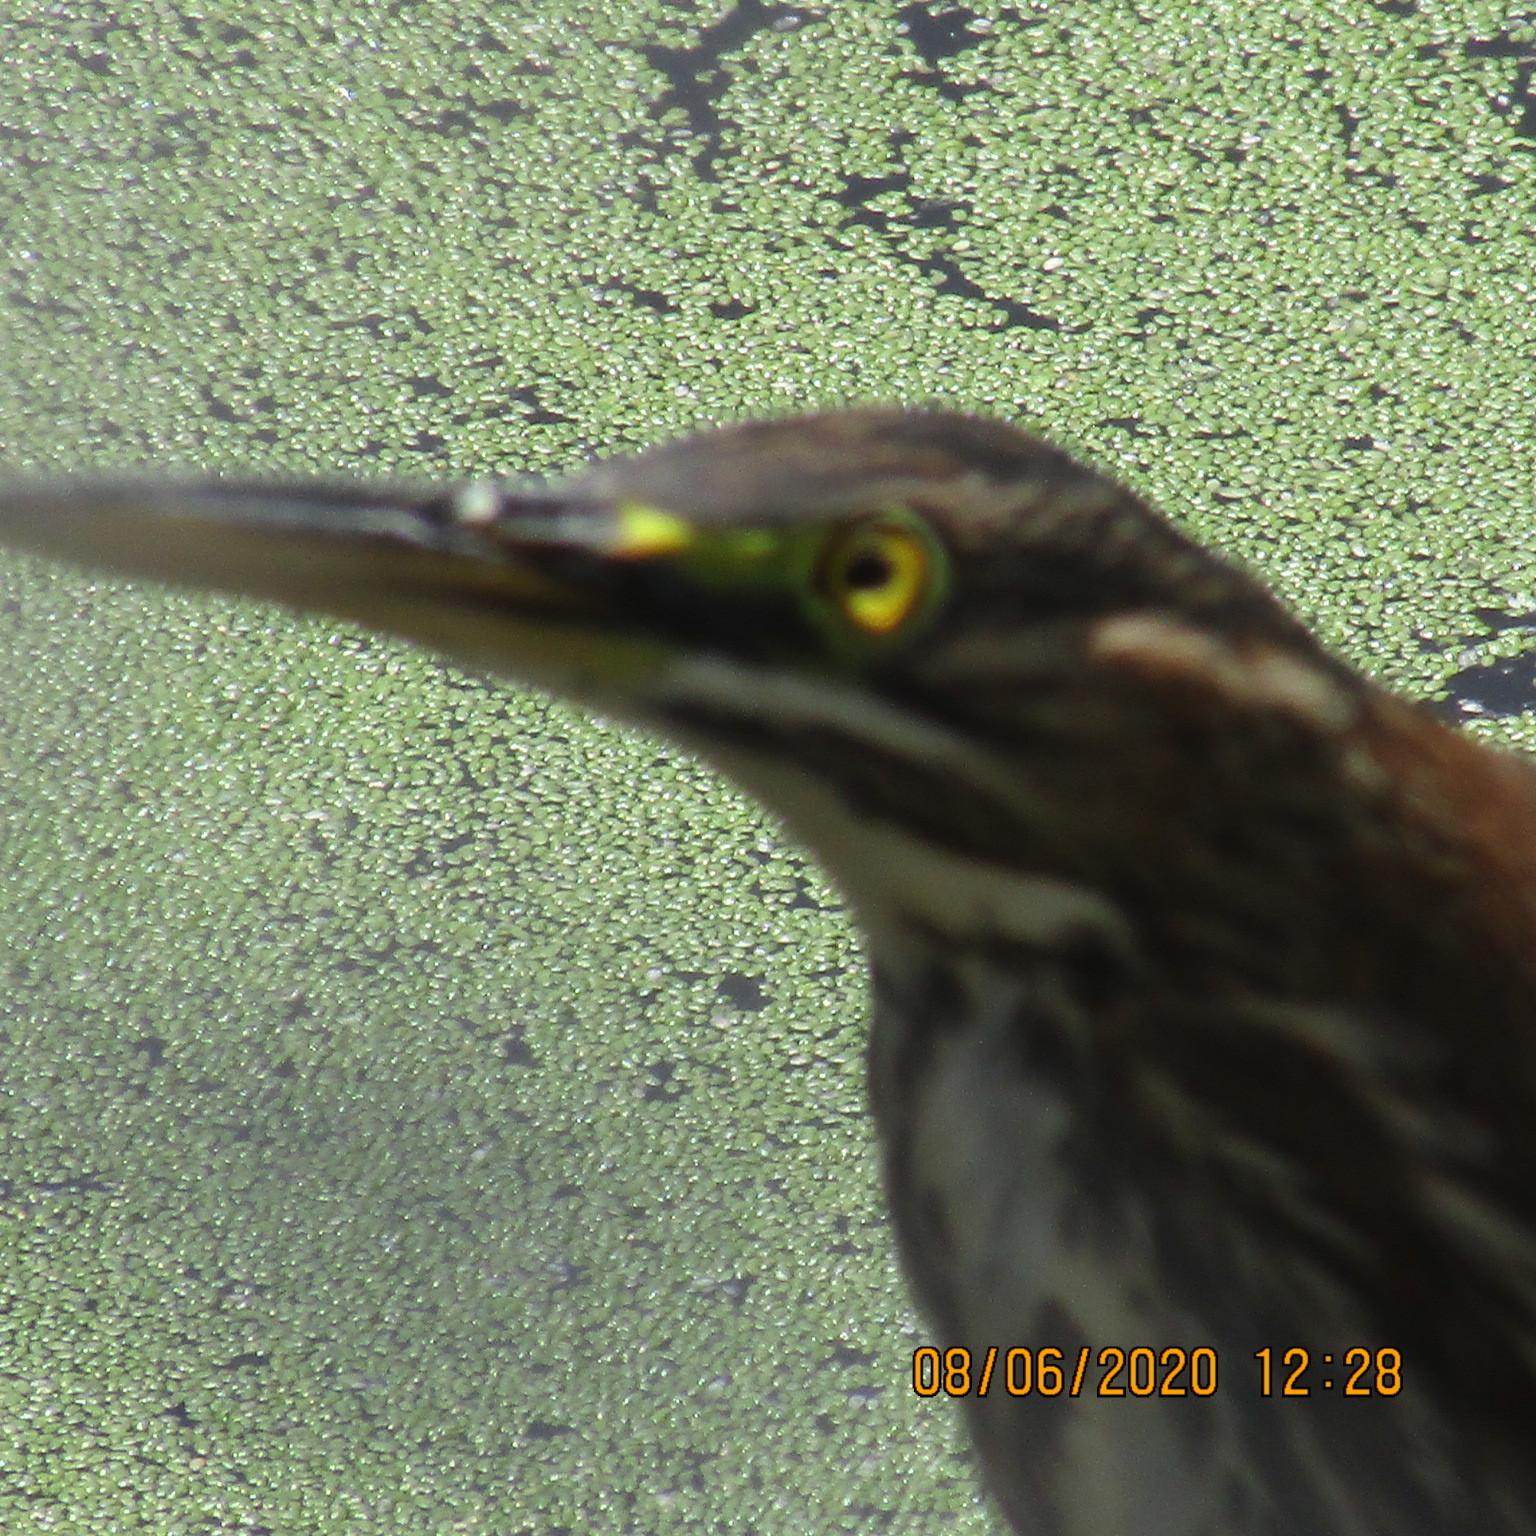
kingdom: Animalia
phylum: Chordata
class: Aves
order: Pelecaniformes
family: Ardeidae
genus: Butorides
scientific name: Butorides virescens
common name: Green heron
